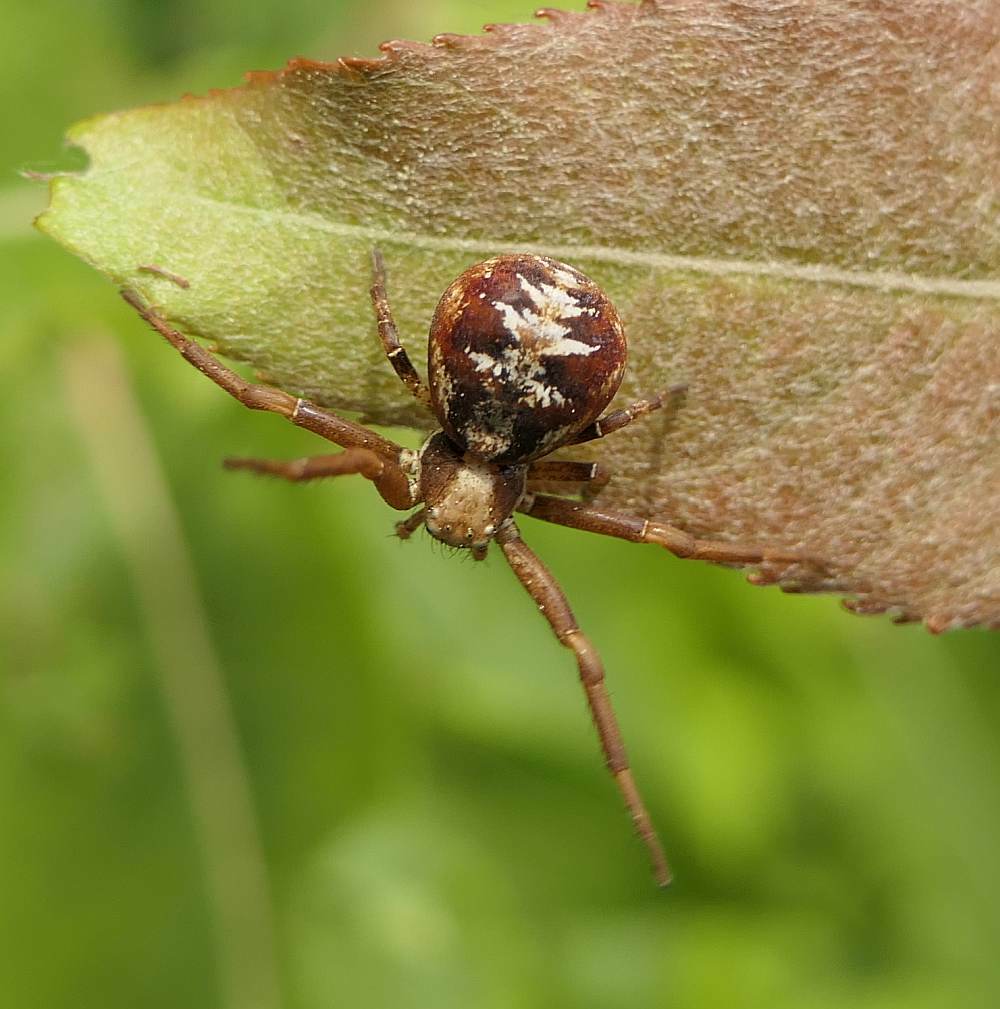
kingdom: Animalia
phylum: Arthropoda
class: Arachnida
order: Araneae
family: Thomisidae
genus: Xysticus
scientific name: Xysticus punctatus
